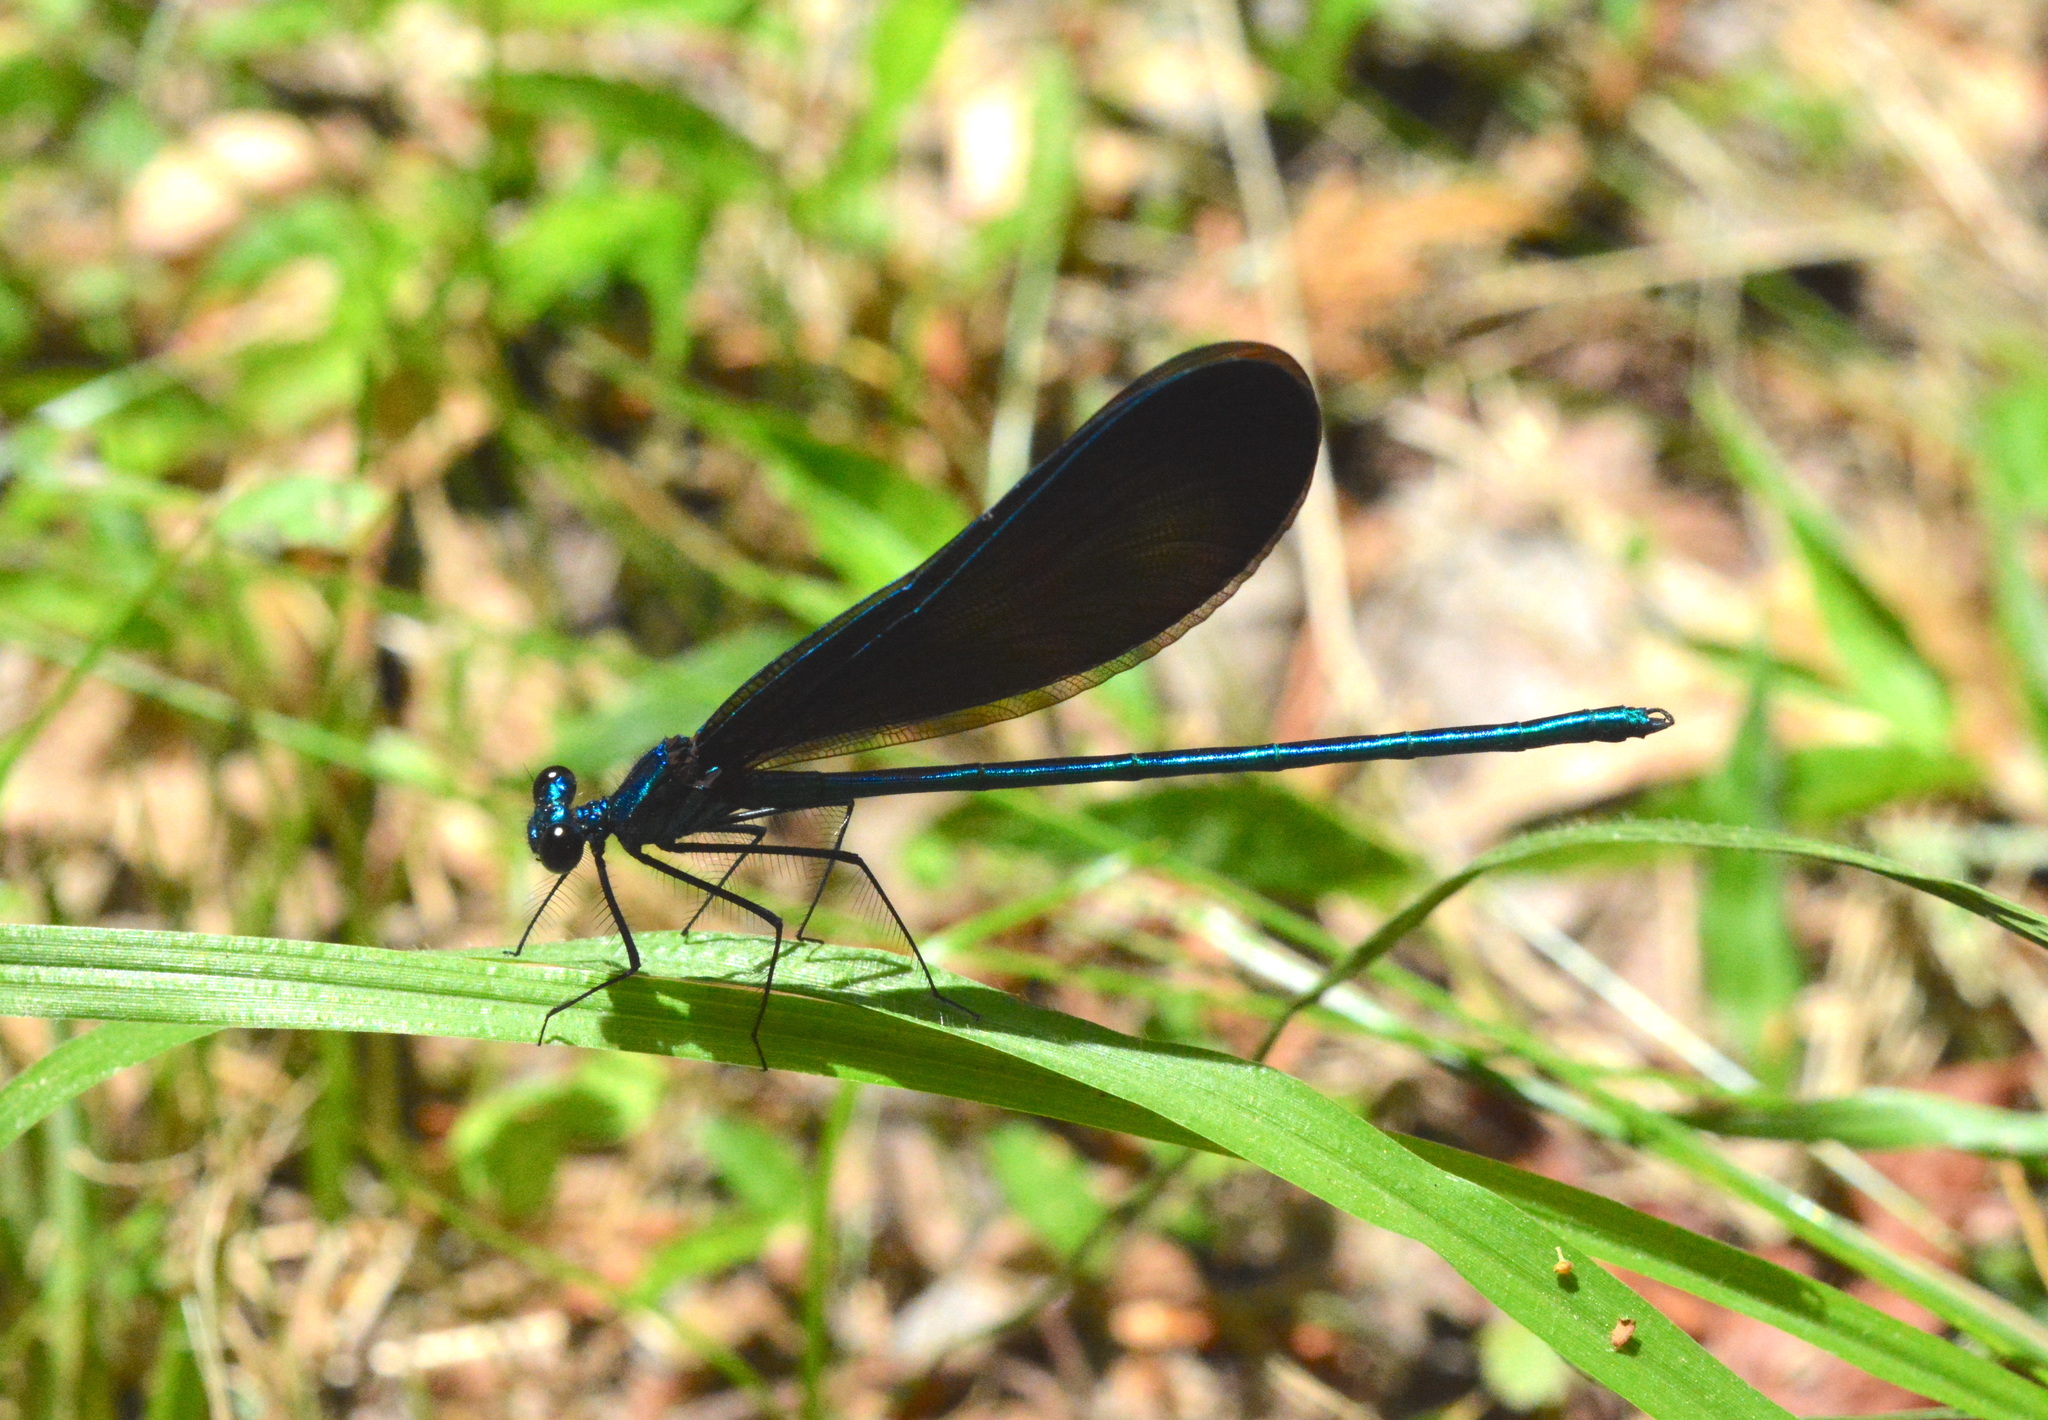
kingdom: Animalia
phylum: Arthropoda
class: Insecta
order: Odonata
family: Calopterygidae
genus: Calopteryx
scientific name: Calopteryx maculata
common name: Ebony jewelwing
